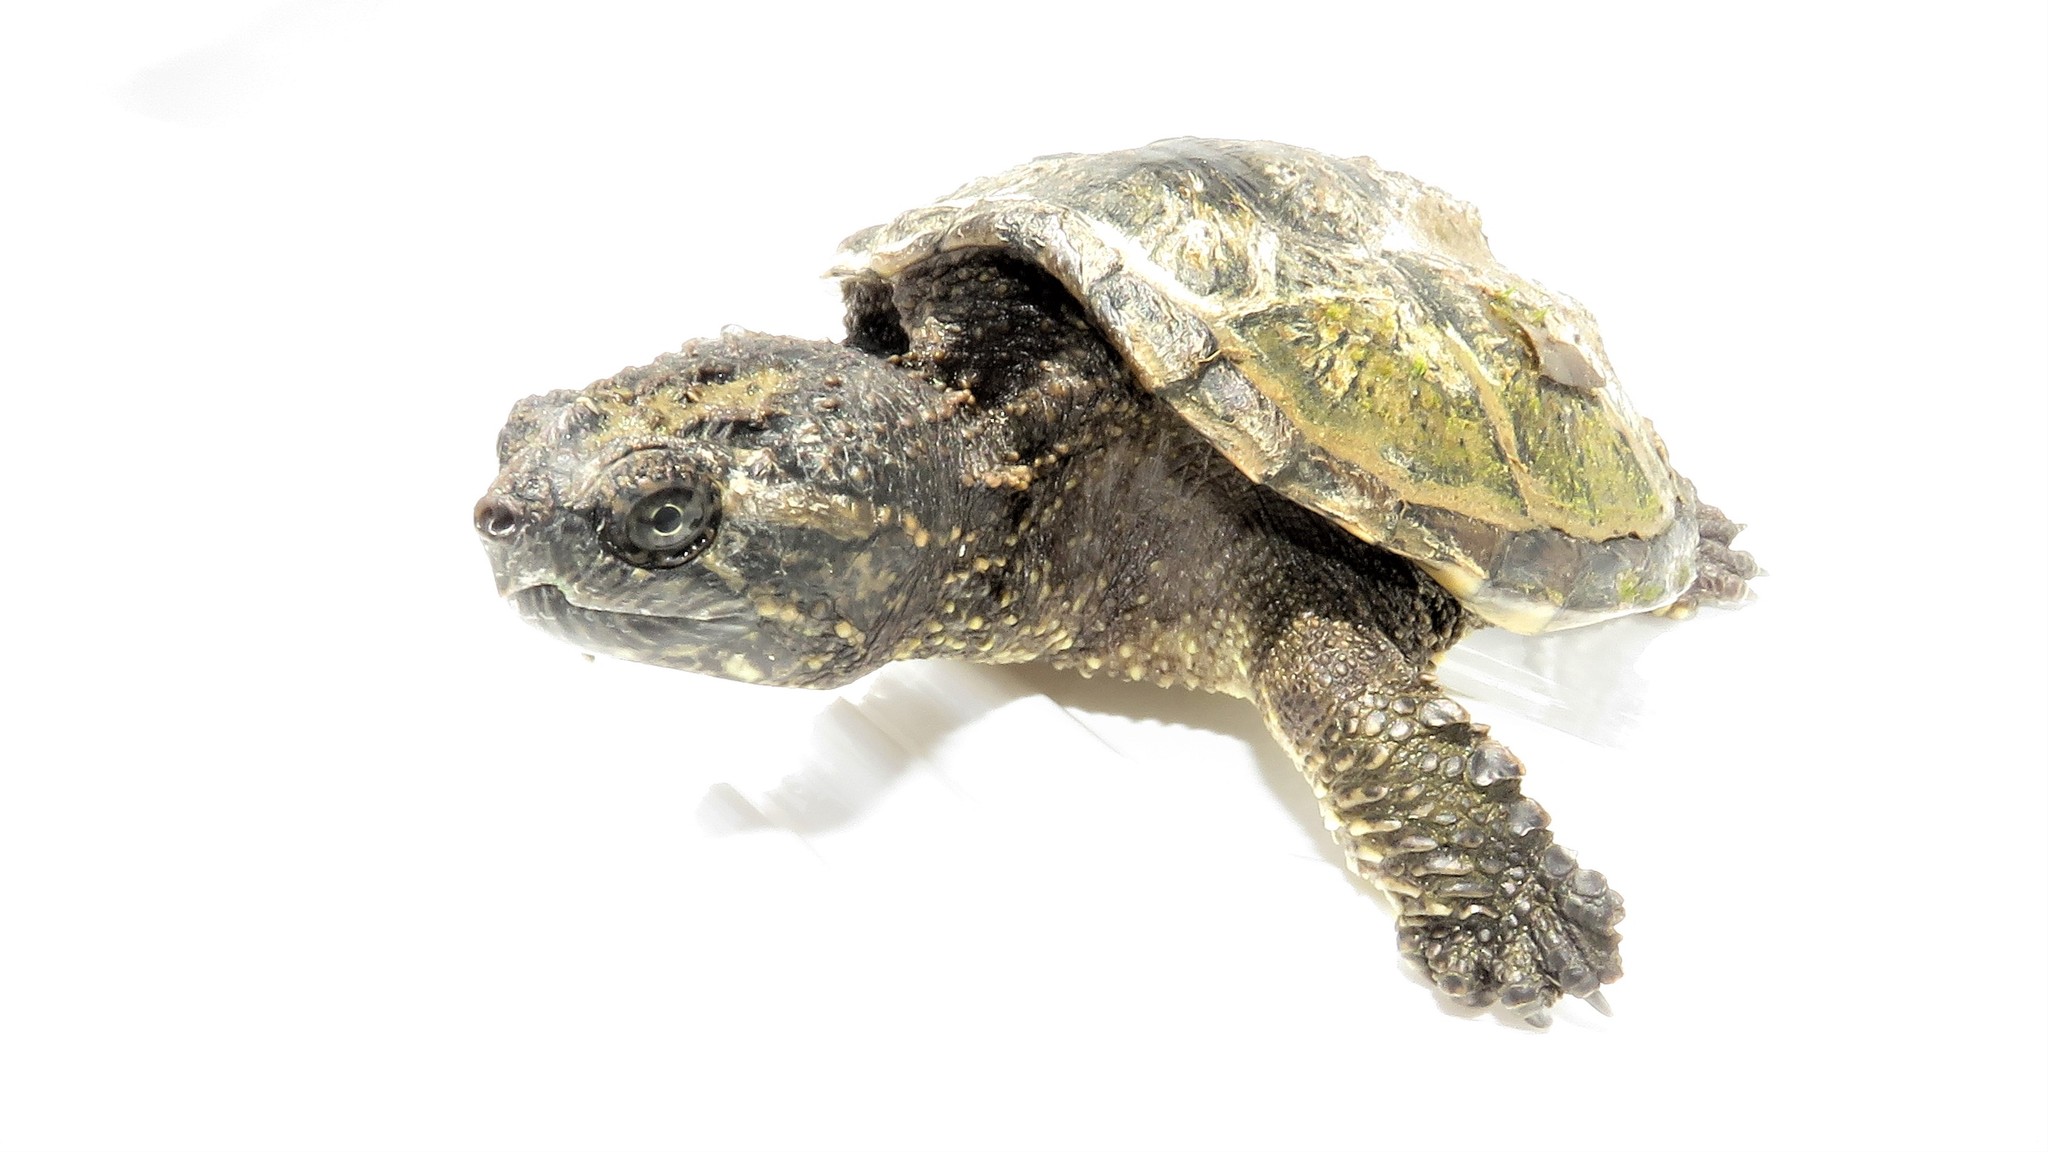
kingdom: Animalia
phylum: Chordata
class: Testudines
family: Chelydridae
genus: Chelydra
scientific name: Chelydra serpentina
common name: Common snapping turtle
